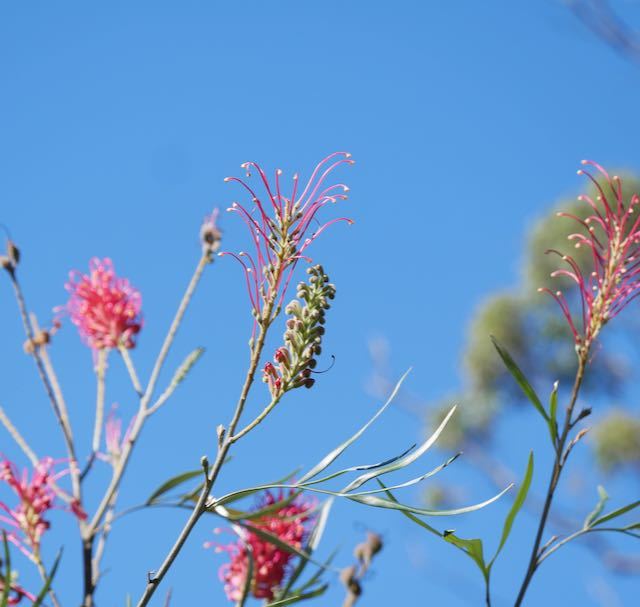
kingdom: Plantae
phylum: Tracheophyta
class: Magnoliopsida
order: Proteales
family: Proteaceae
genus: Grevillea
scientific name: Grevillea banksii
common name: Kahili flower
